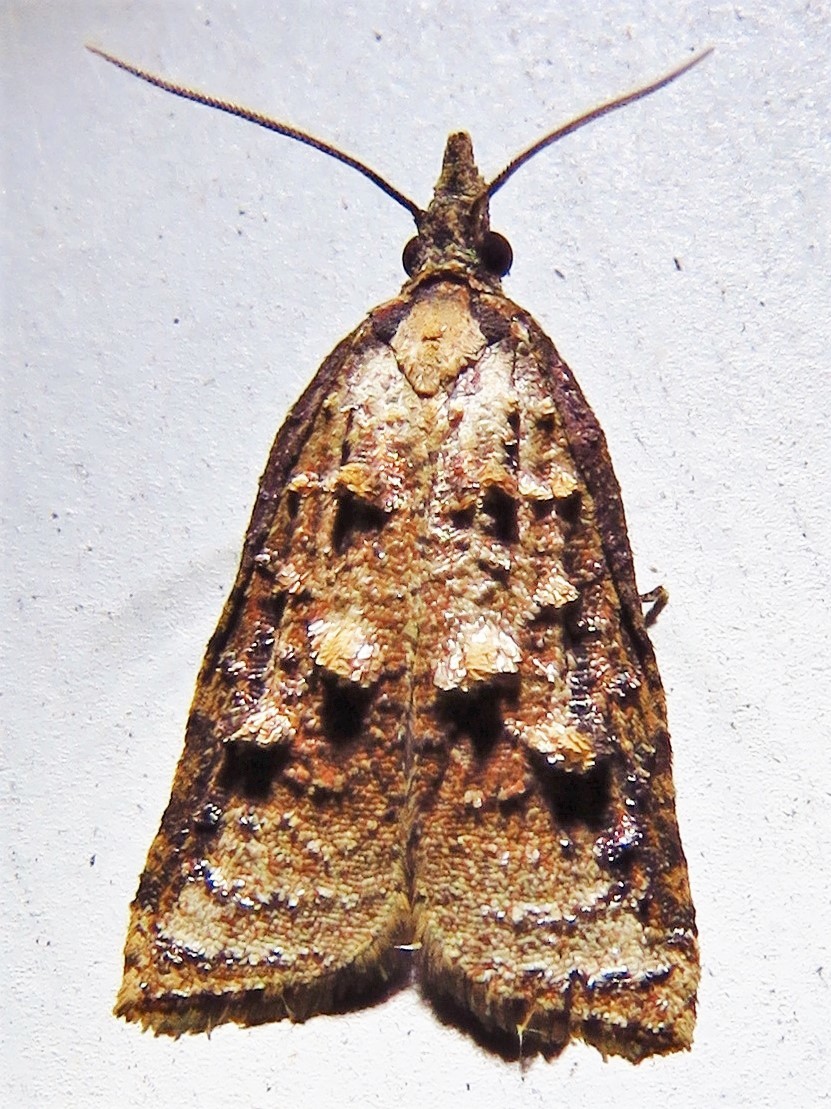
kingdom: Animalia
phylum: Arthropoda
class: Insecta
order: Lepidoptera
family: Tortricidae
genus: Platynota
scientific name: Platynota rostrana
